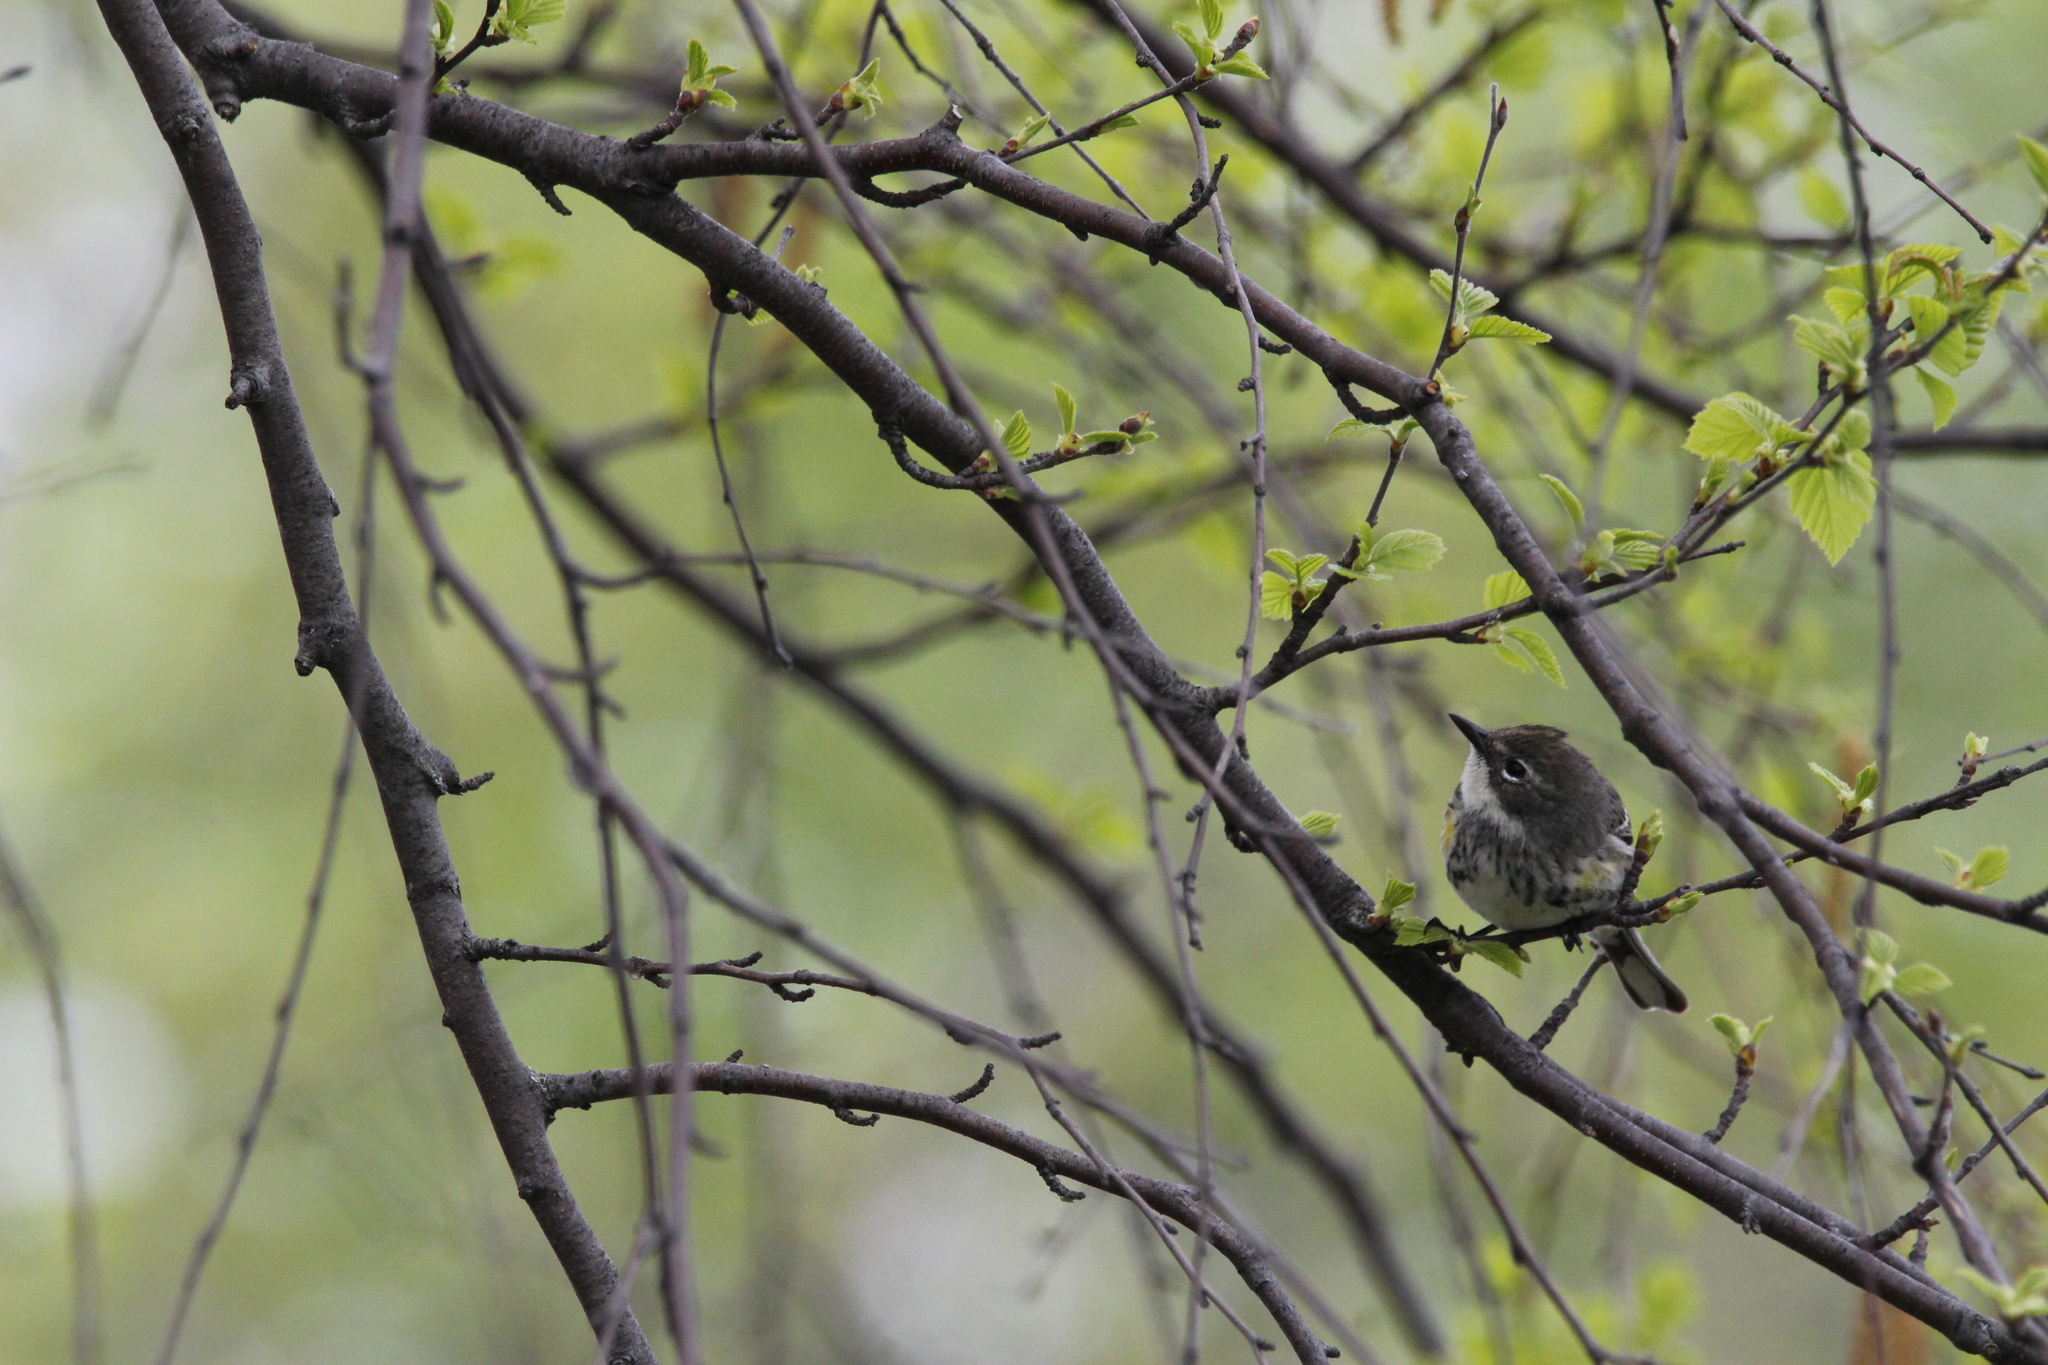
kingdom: Animalia
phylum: Chordata
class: Aves
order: Passeriformes
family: Parulidae
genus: Setophaga
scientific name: Setophaga coronata
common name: Myrtle warbler
